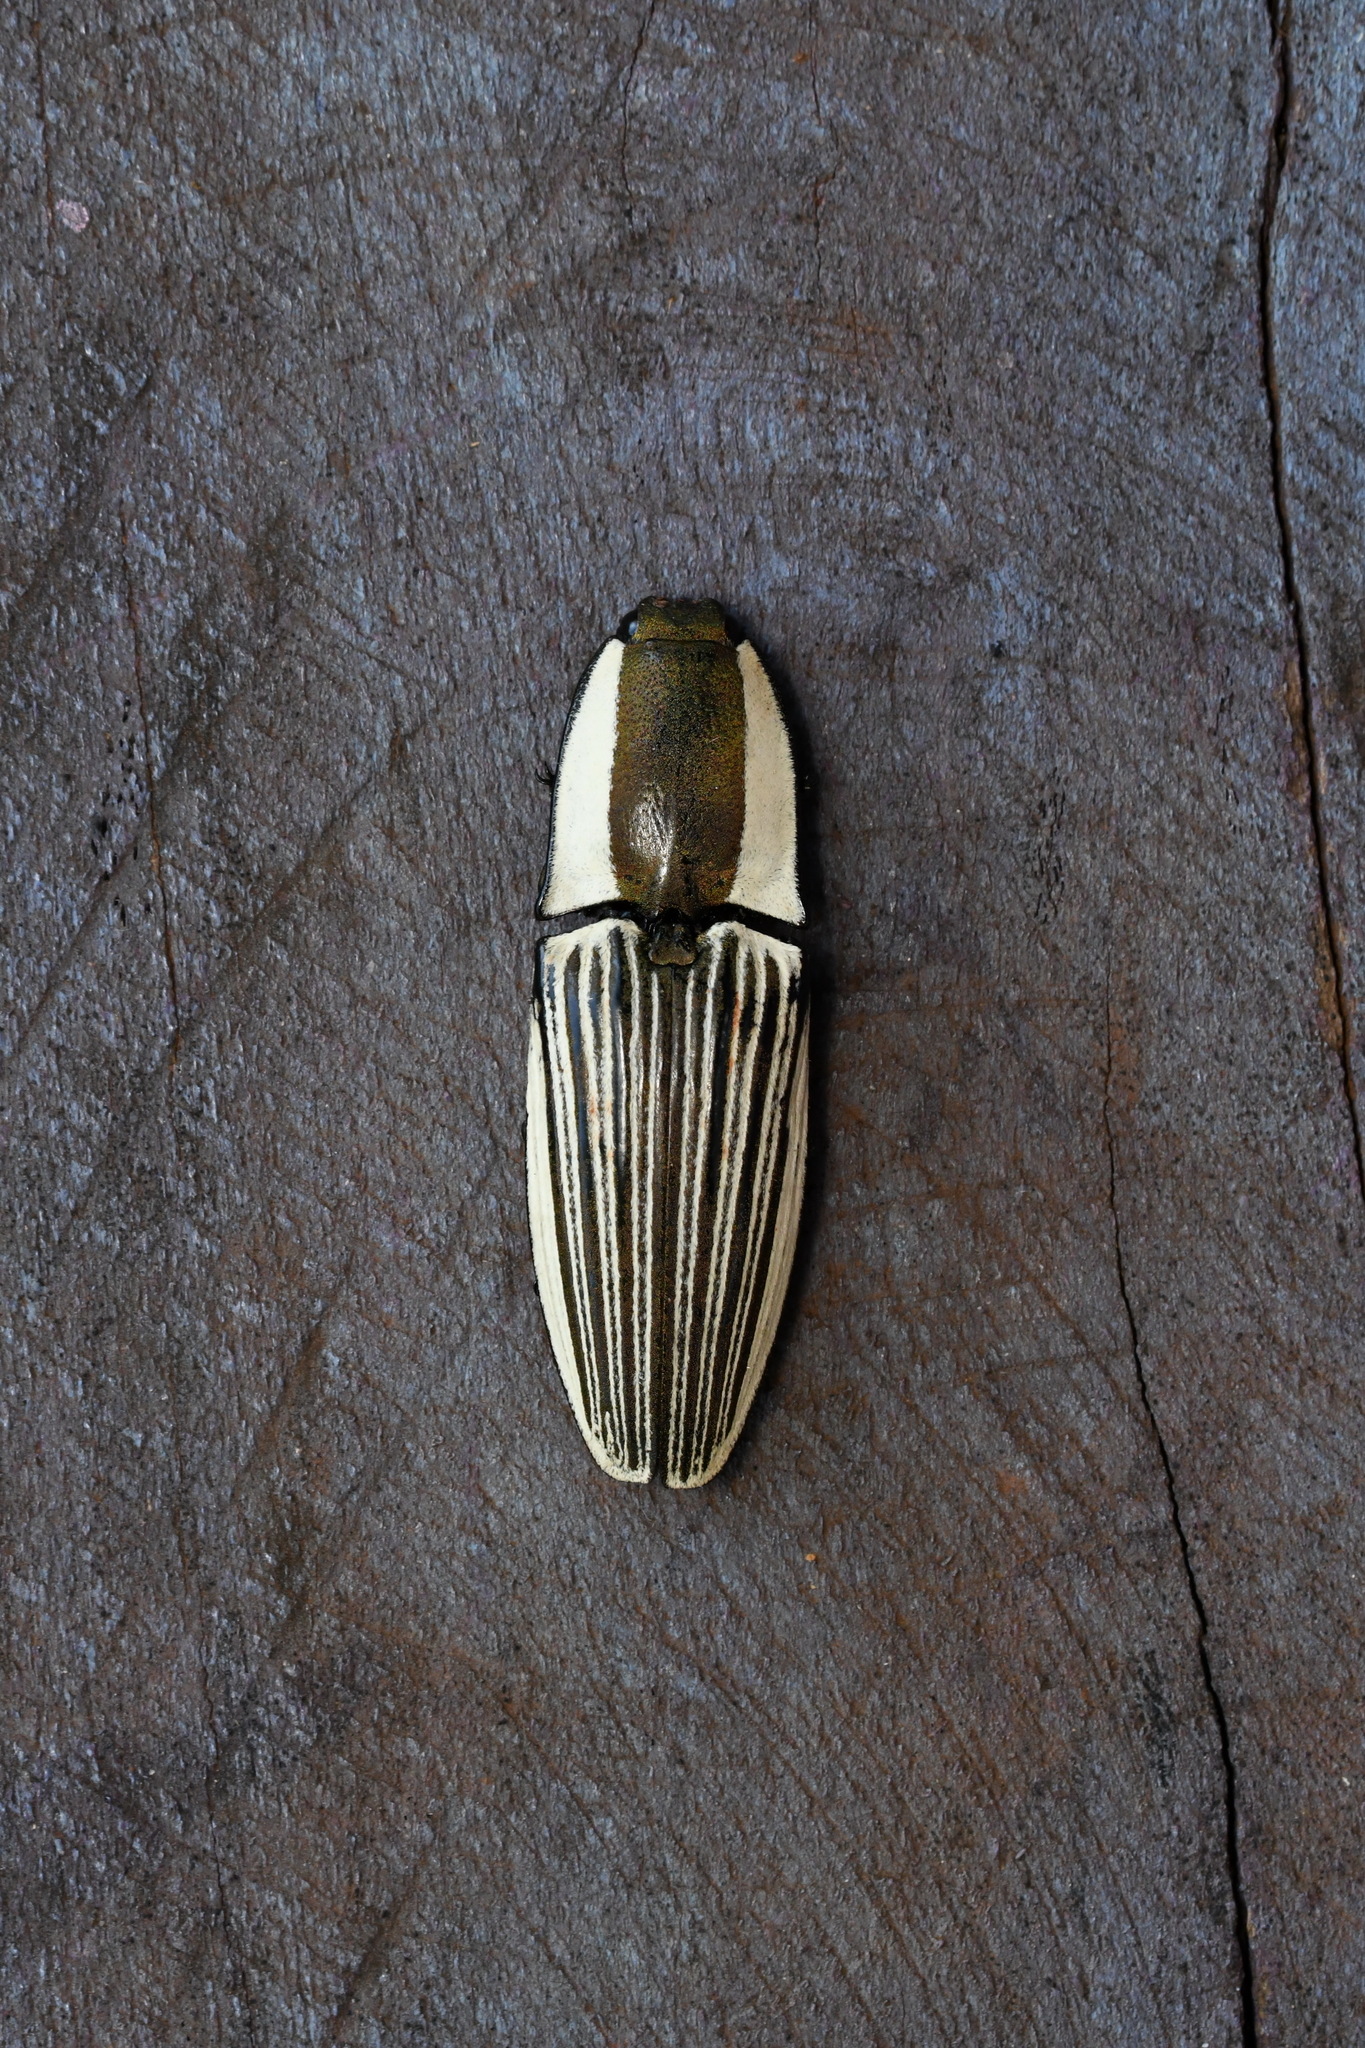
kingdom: Animalia
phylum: Arthropoda
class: Insecta
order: Coleoptera
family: Elateridae
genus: Chalcolepidius
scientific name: Chalcolepidius zonatus
